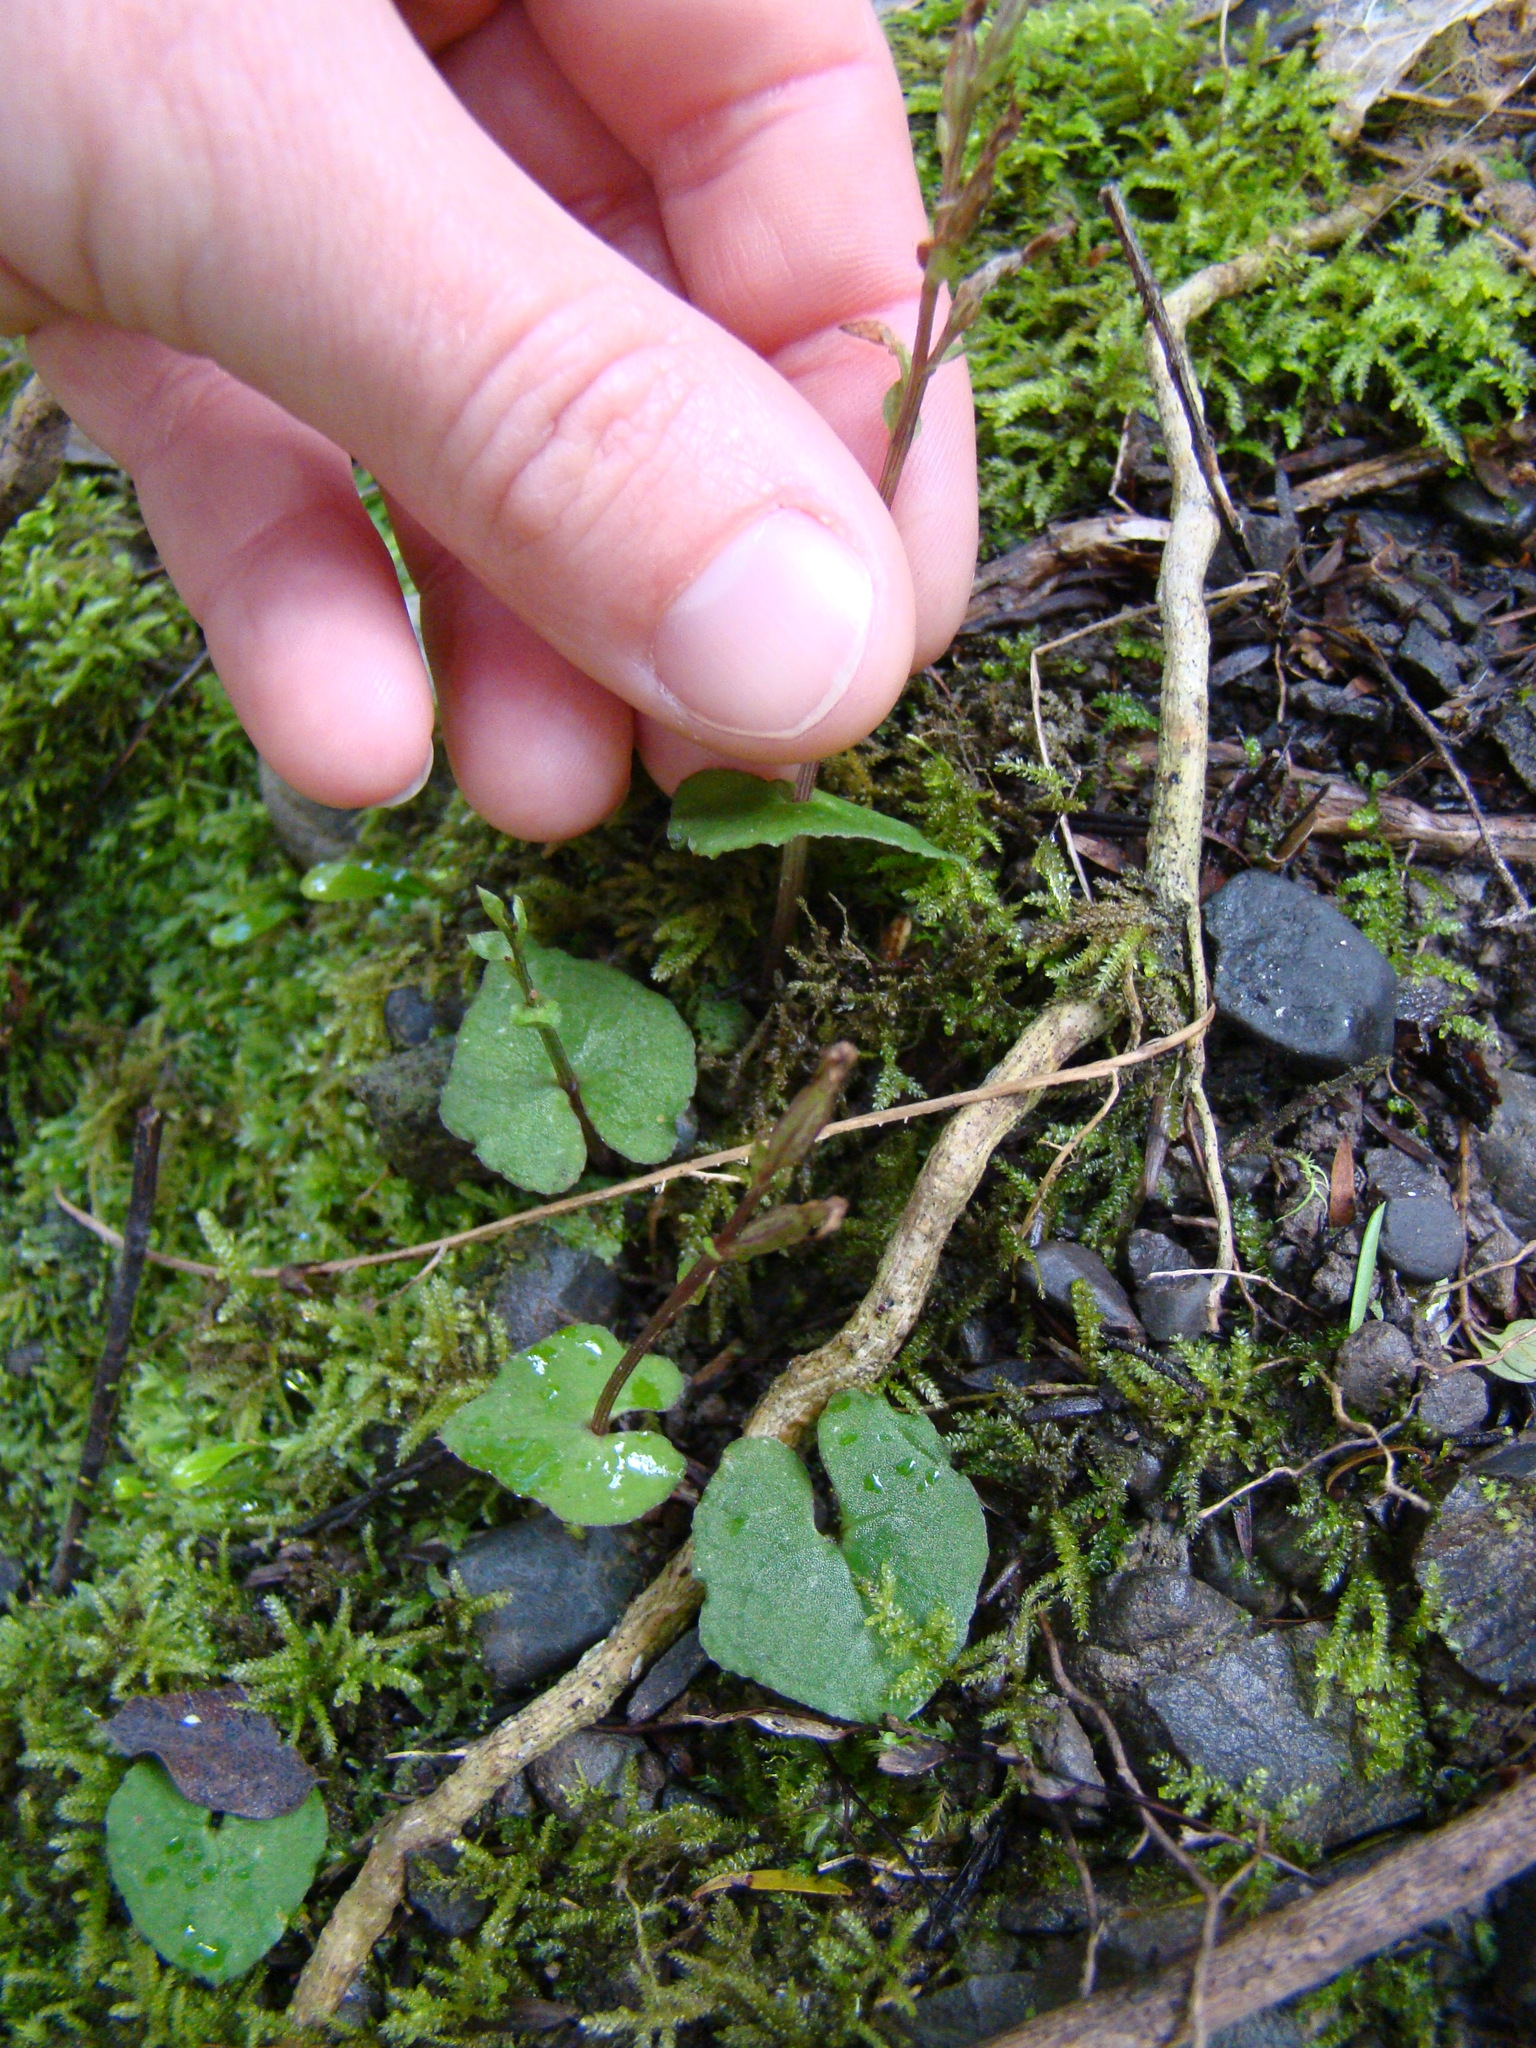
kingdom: Plantae
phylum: Tracheophyta
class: Liliopsida
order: Asparagales
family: Orchidaceae
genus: Acianthus
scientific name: Acianthus sinclairii
